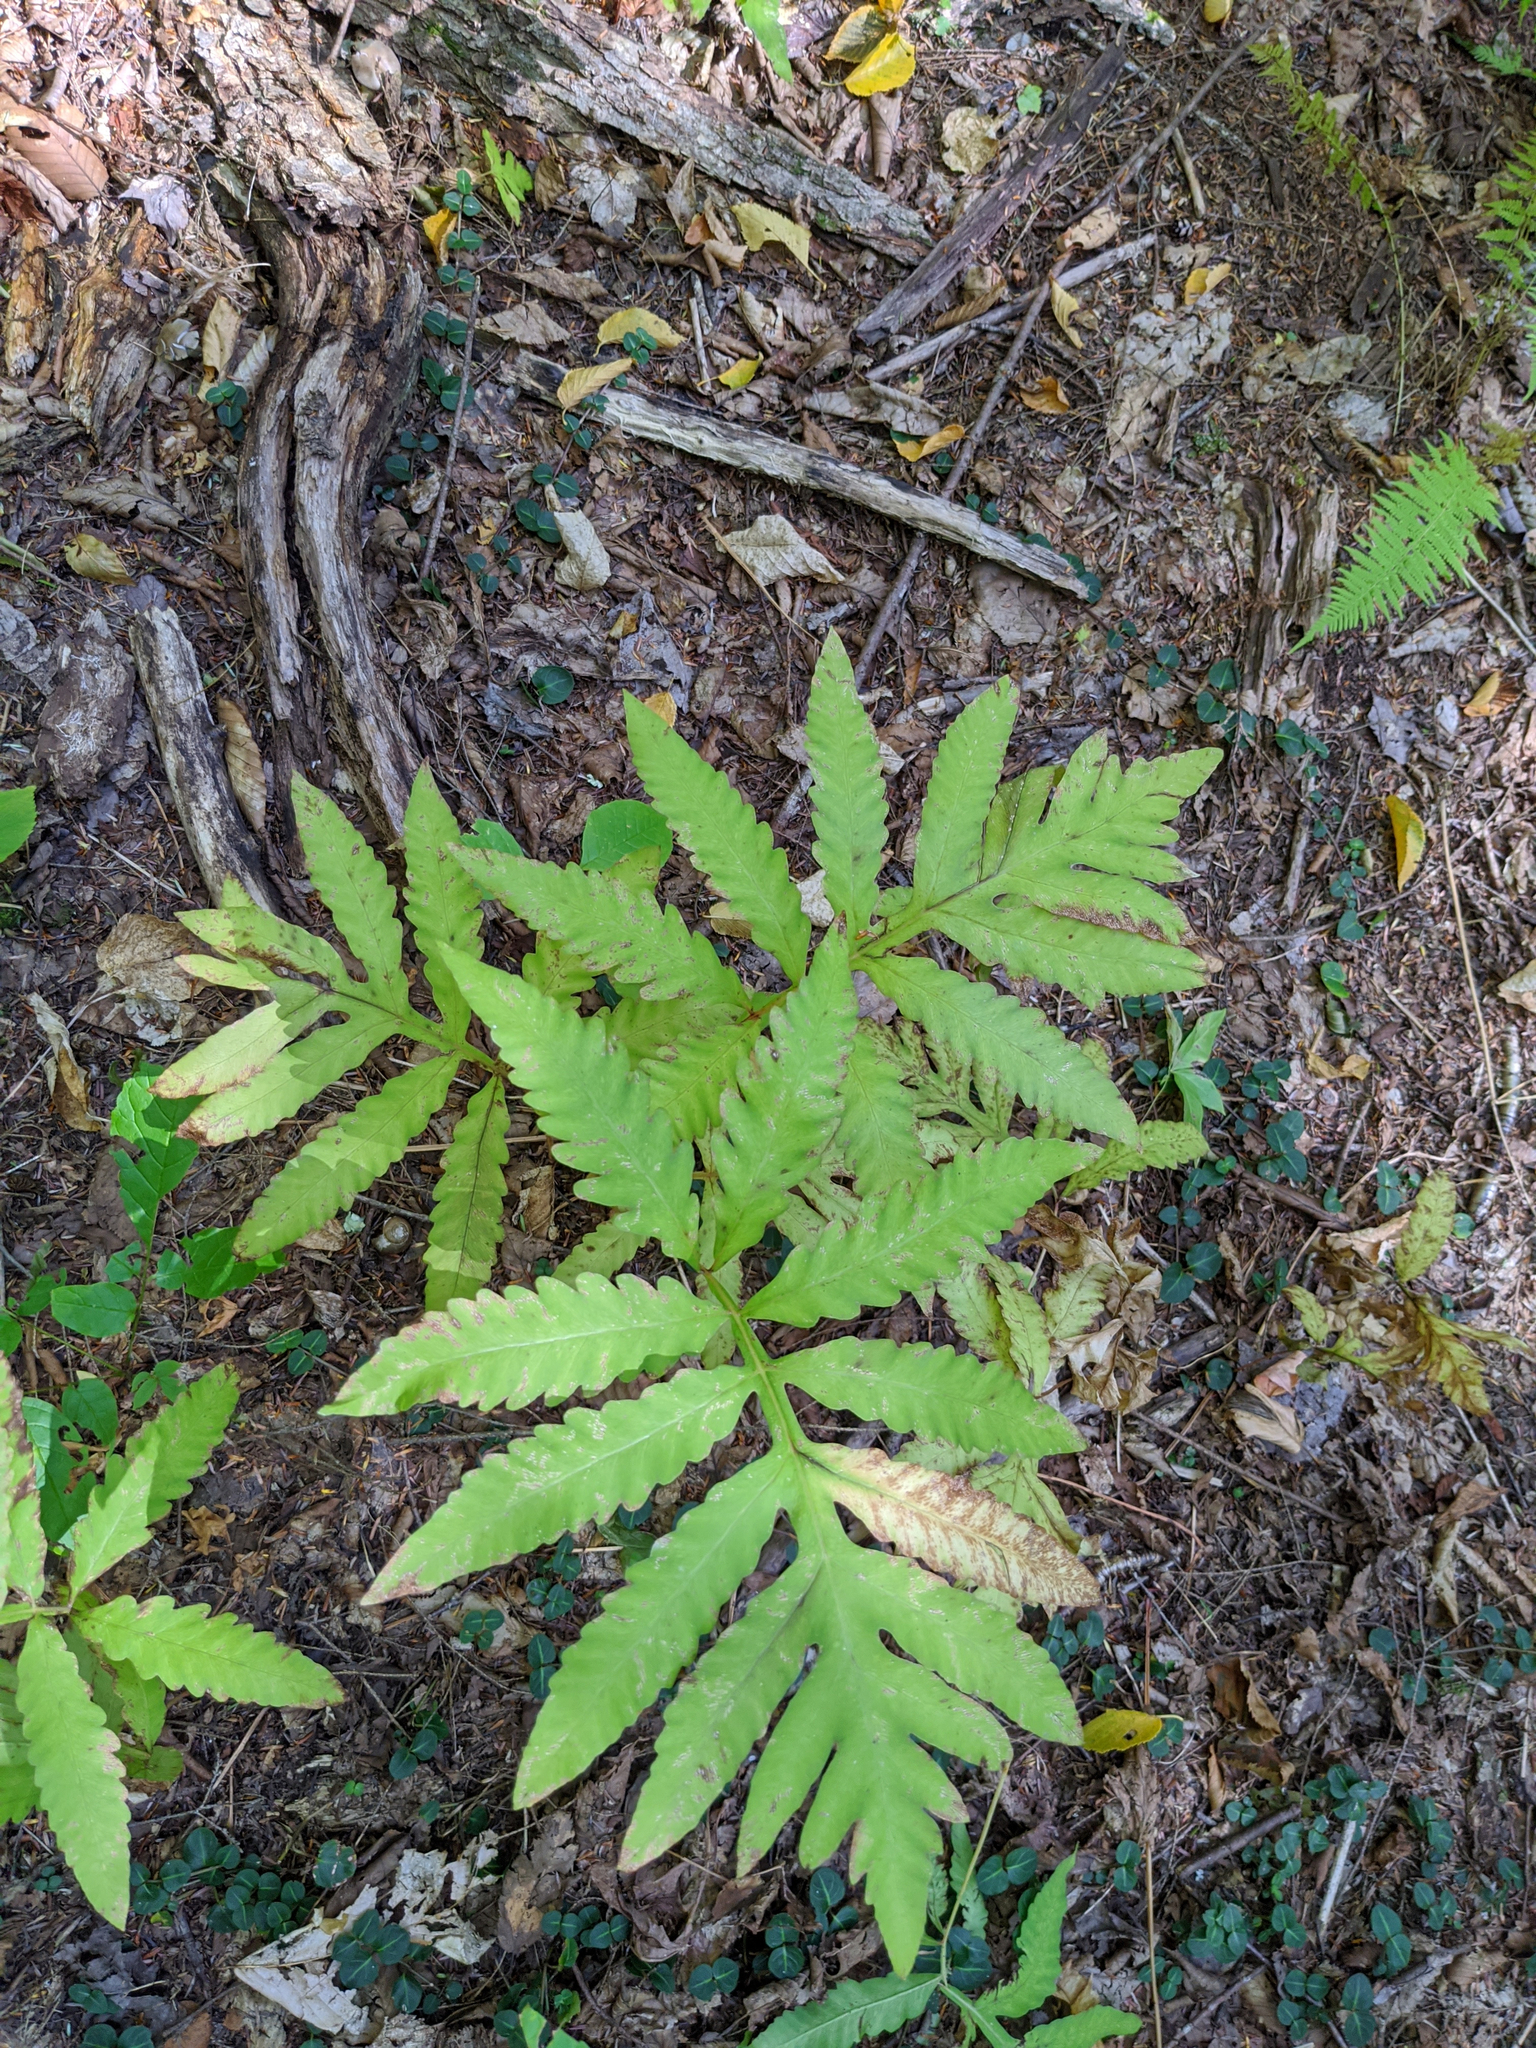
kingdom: Plantae
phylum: Tracheophyta
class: Polypodiopsida
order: Polypodiales
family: Onocleaceae
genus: Onoclea
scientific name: Onoclea sensibilis
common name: Sensitive fern
